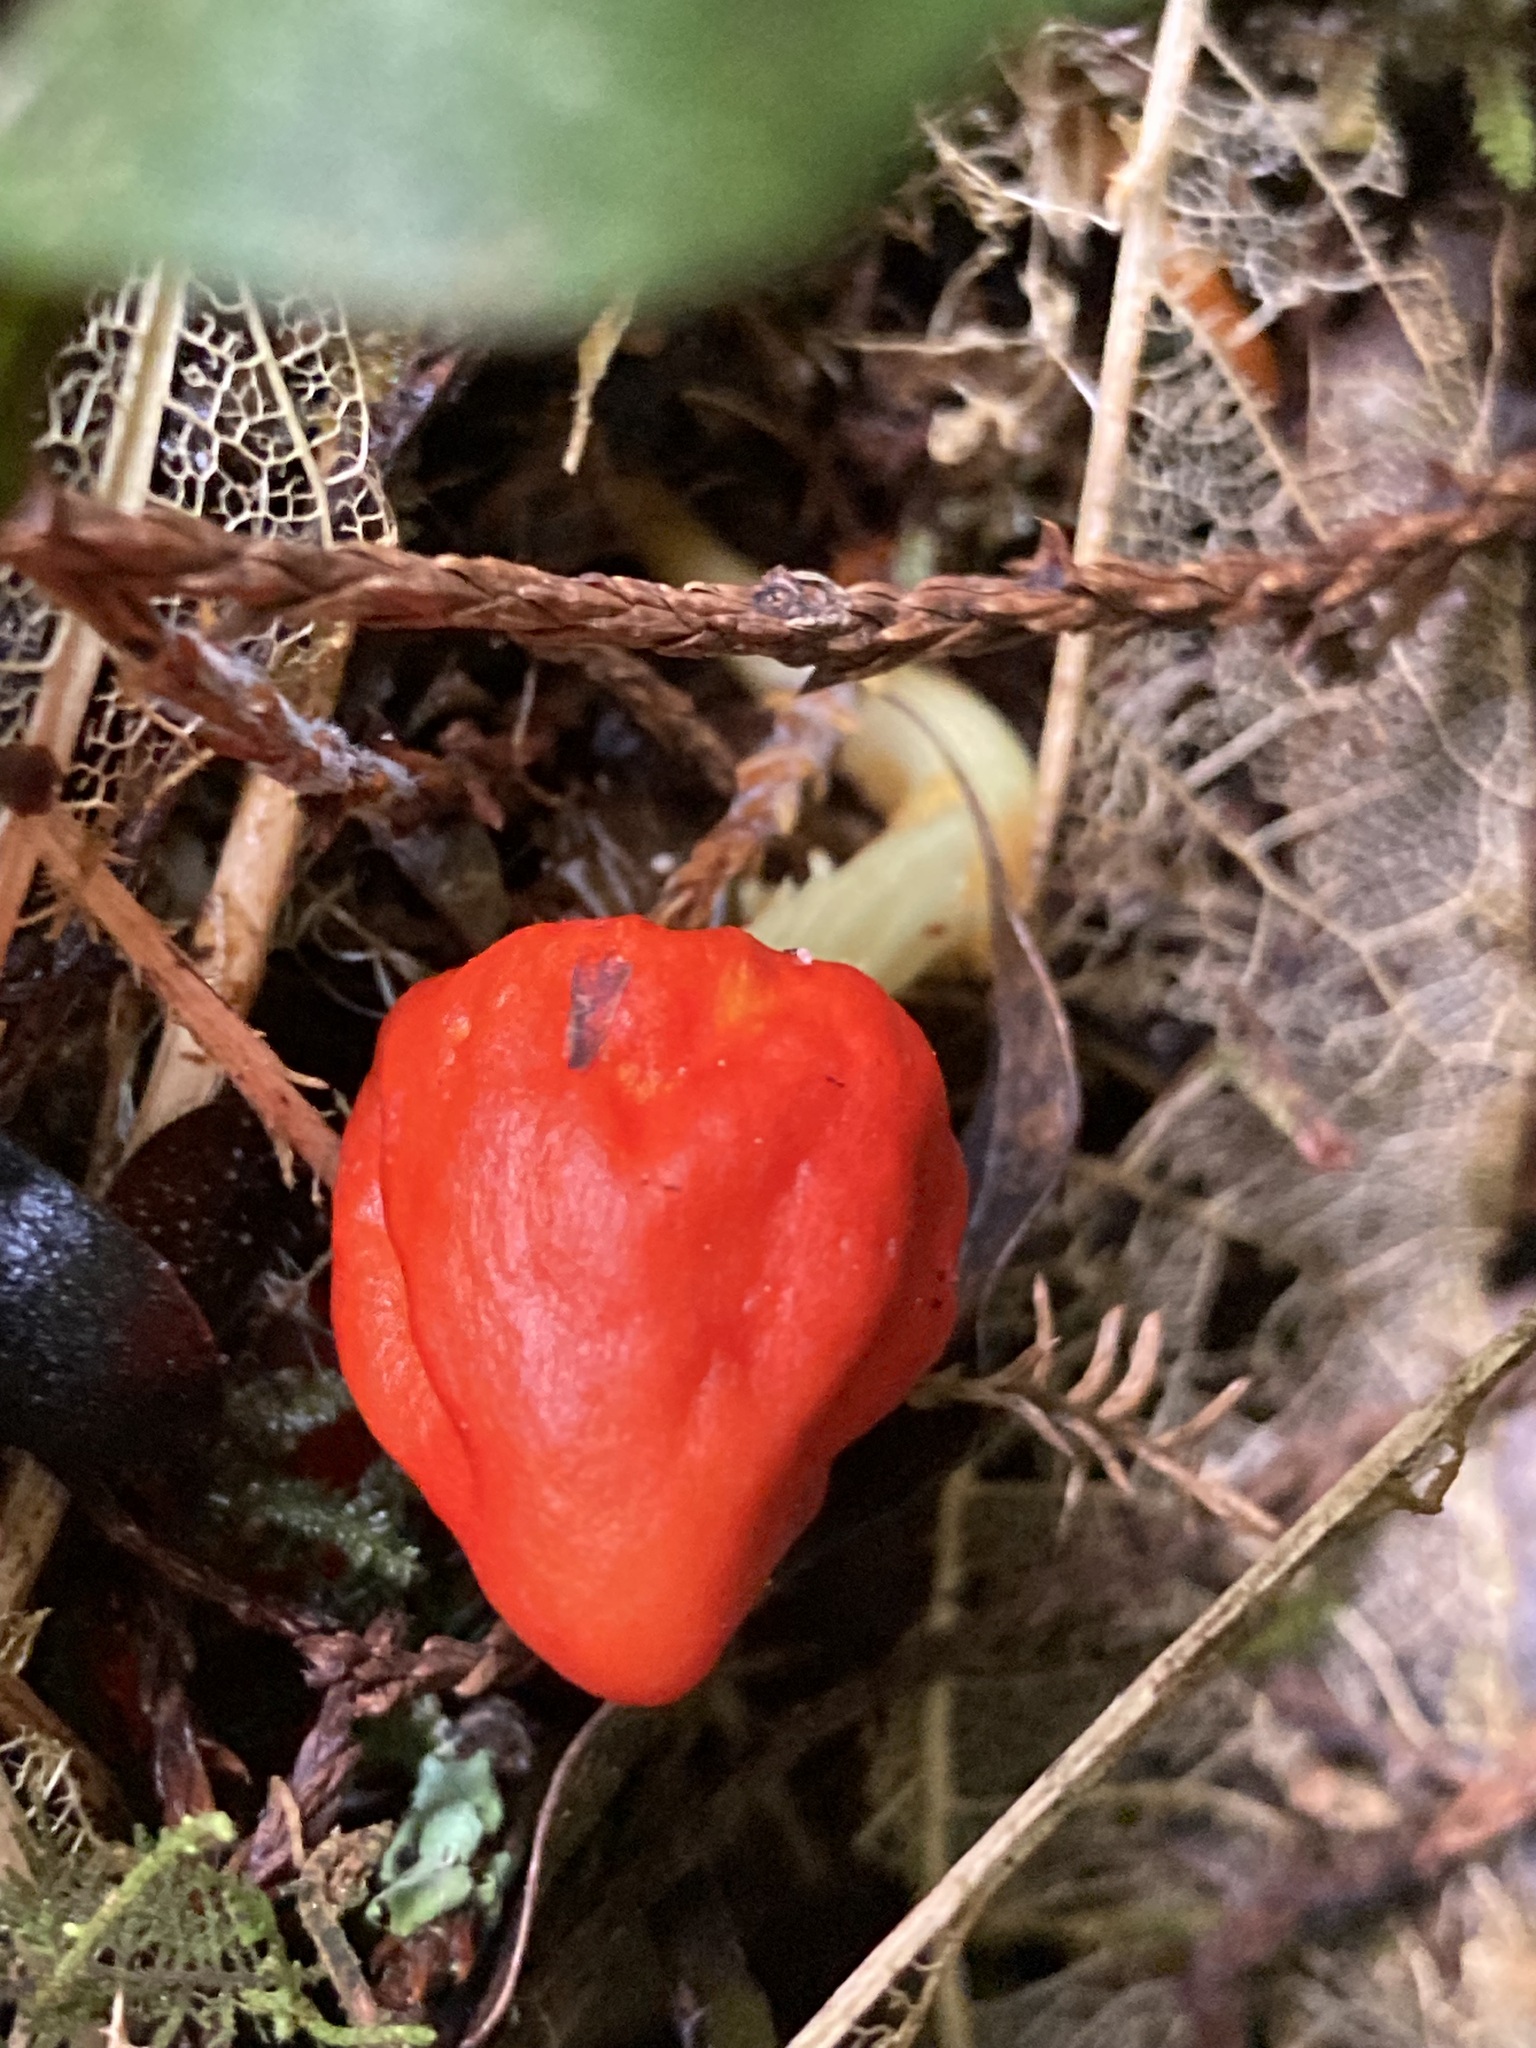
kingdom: Fungi
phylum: Basidiomycota
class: Agaricomycetes
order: Agaricales
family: Strophariaceae
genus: Leratiomyces
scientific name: Leratiomyces erythrocephalus
